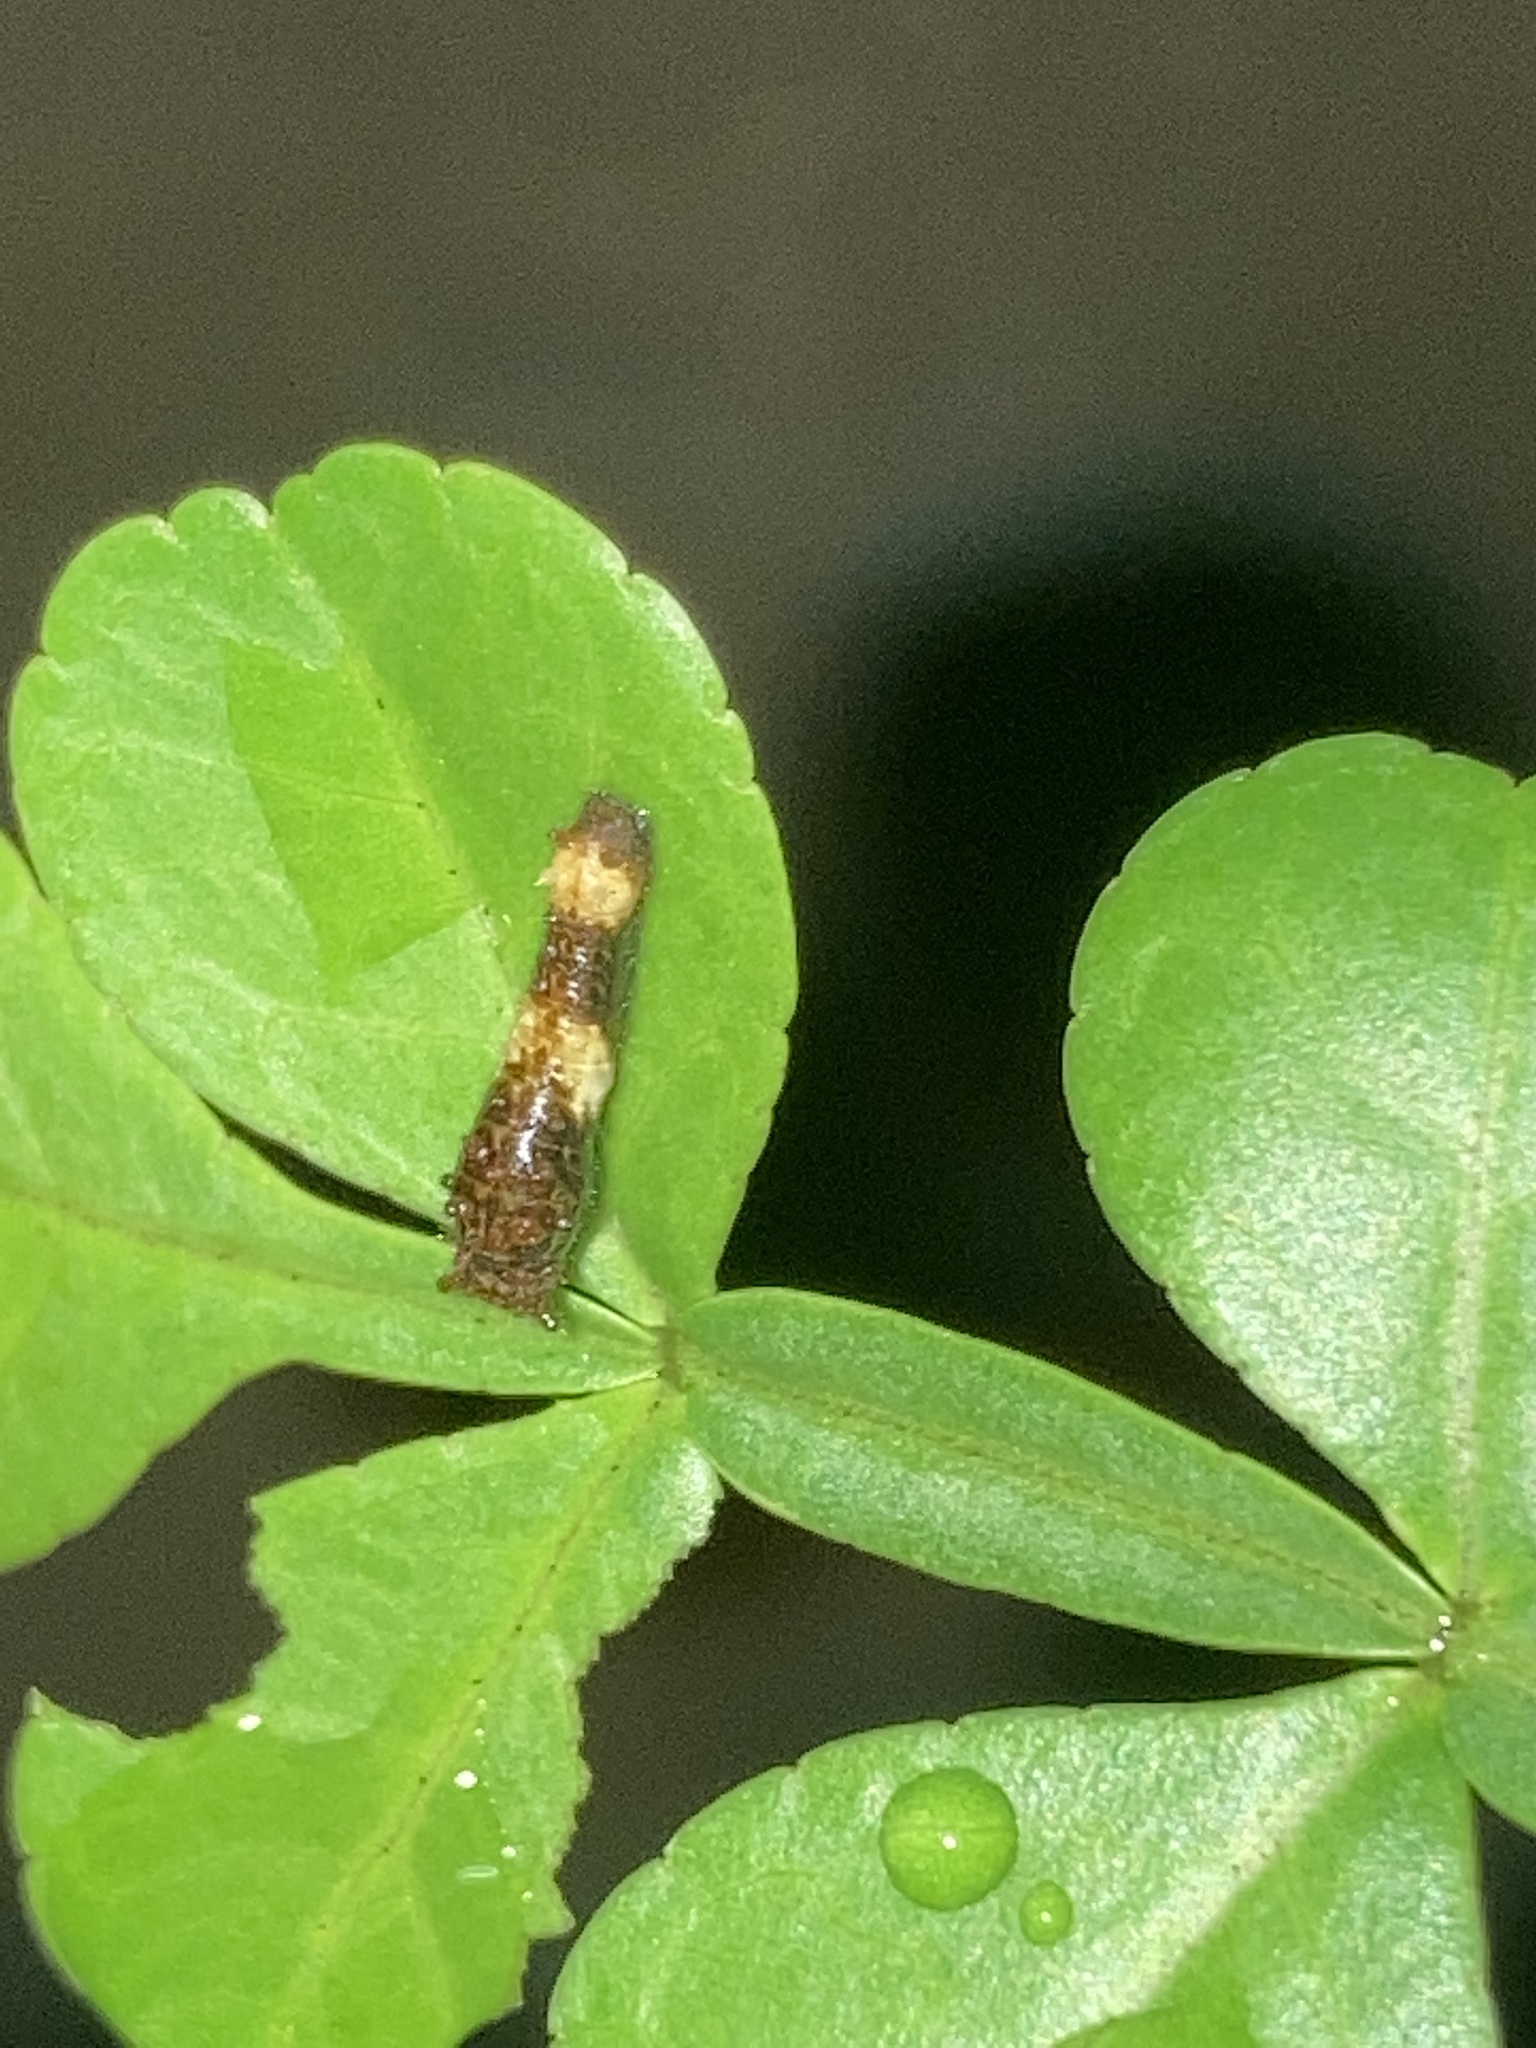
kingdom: Animalia
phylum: Arthropoda
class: Insecta
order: Lepidoptera
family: Papilionidae
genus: Papilio
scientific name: Papilio cresphontes
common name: Giant swallowtail
